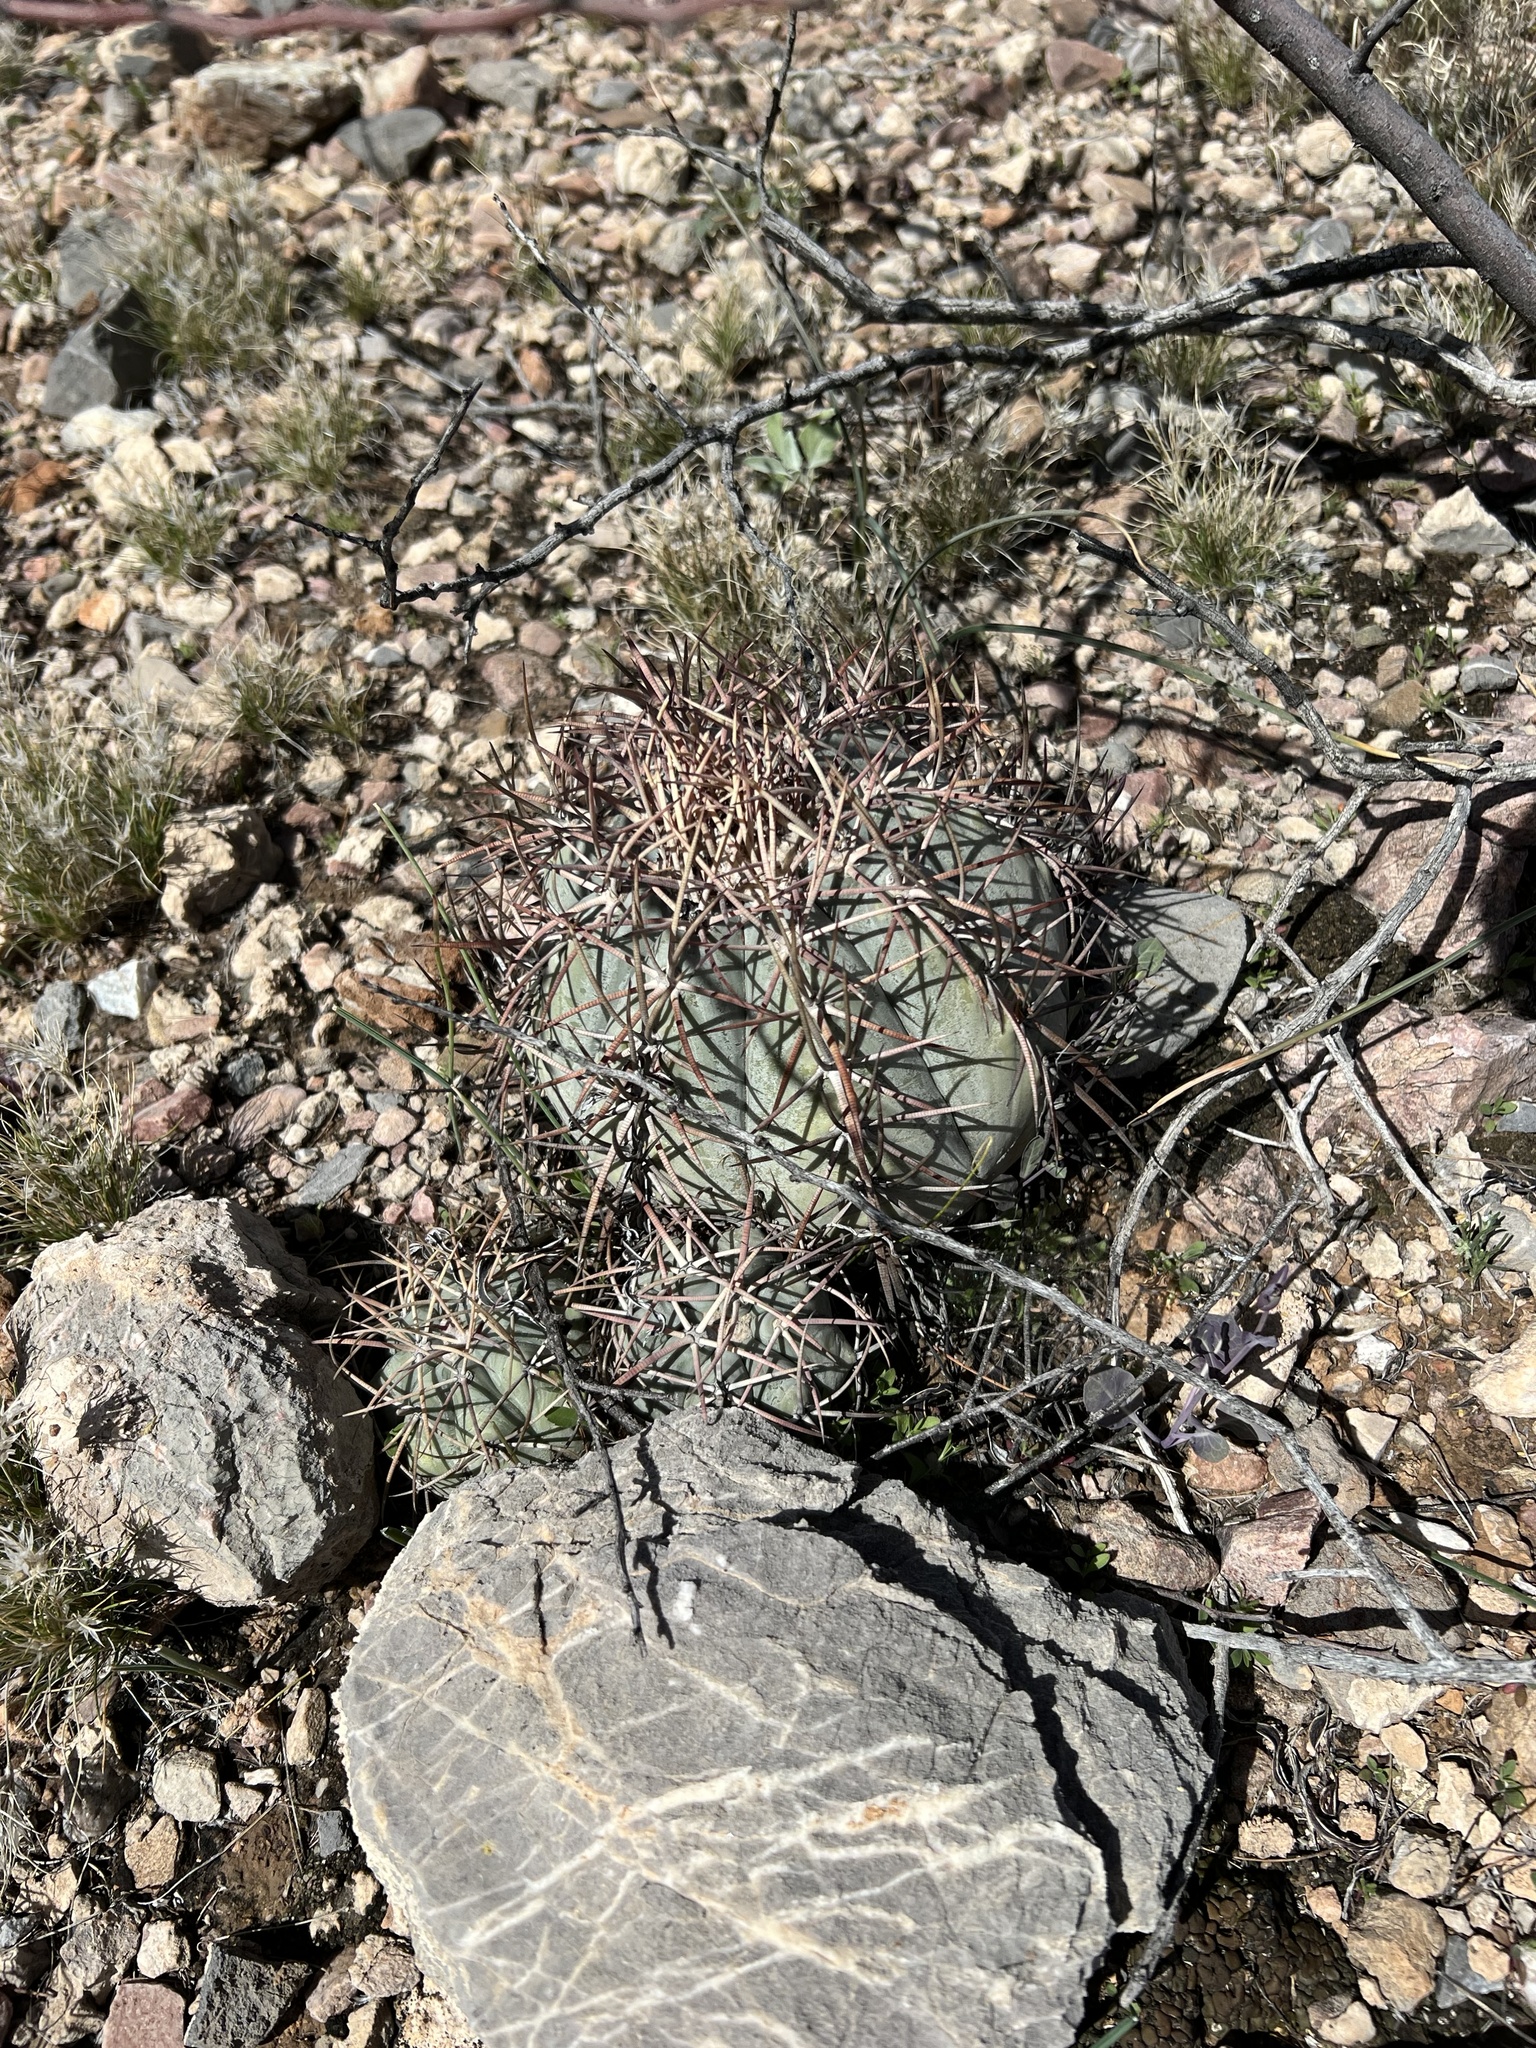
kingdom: Plantae
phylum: Tracheophyta
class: Magnoliopsida
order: Caryophyllales
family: Cactaceae
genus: Echinocactus
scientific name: Echinocactus horizonthalonius
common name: Devilshead
